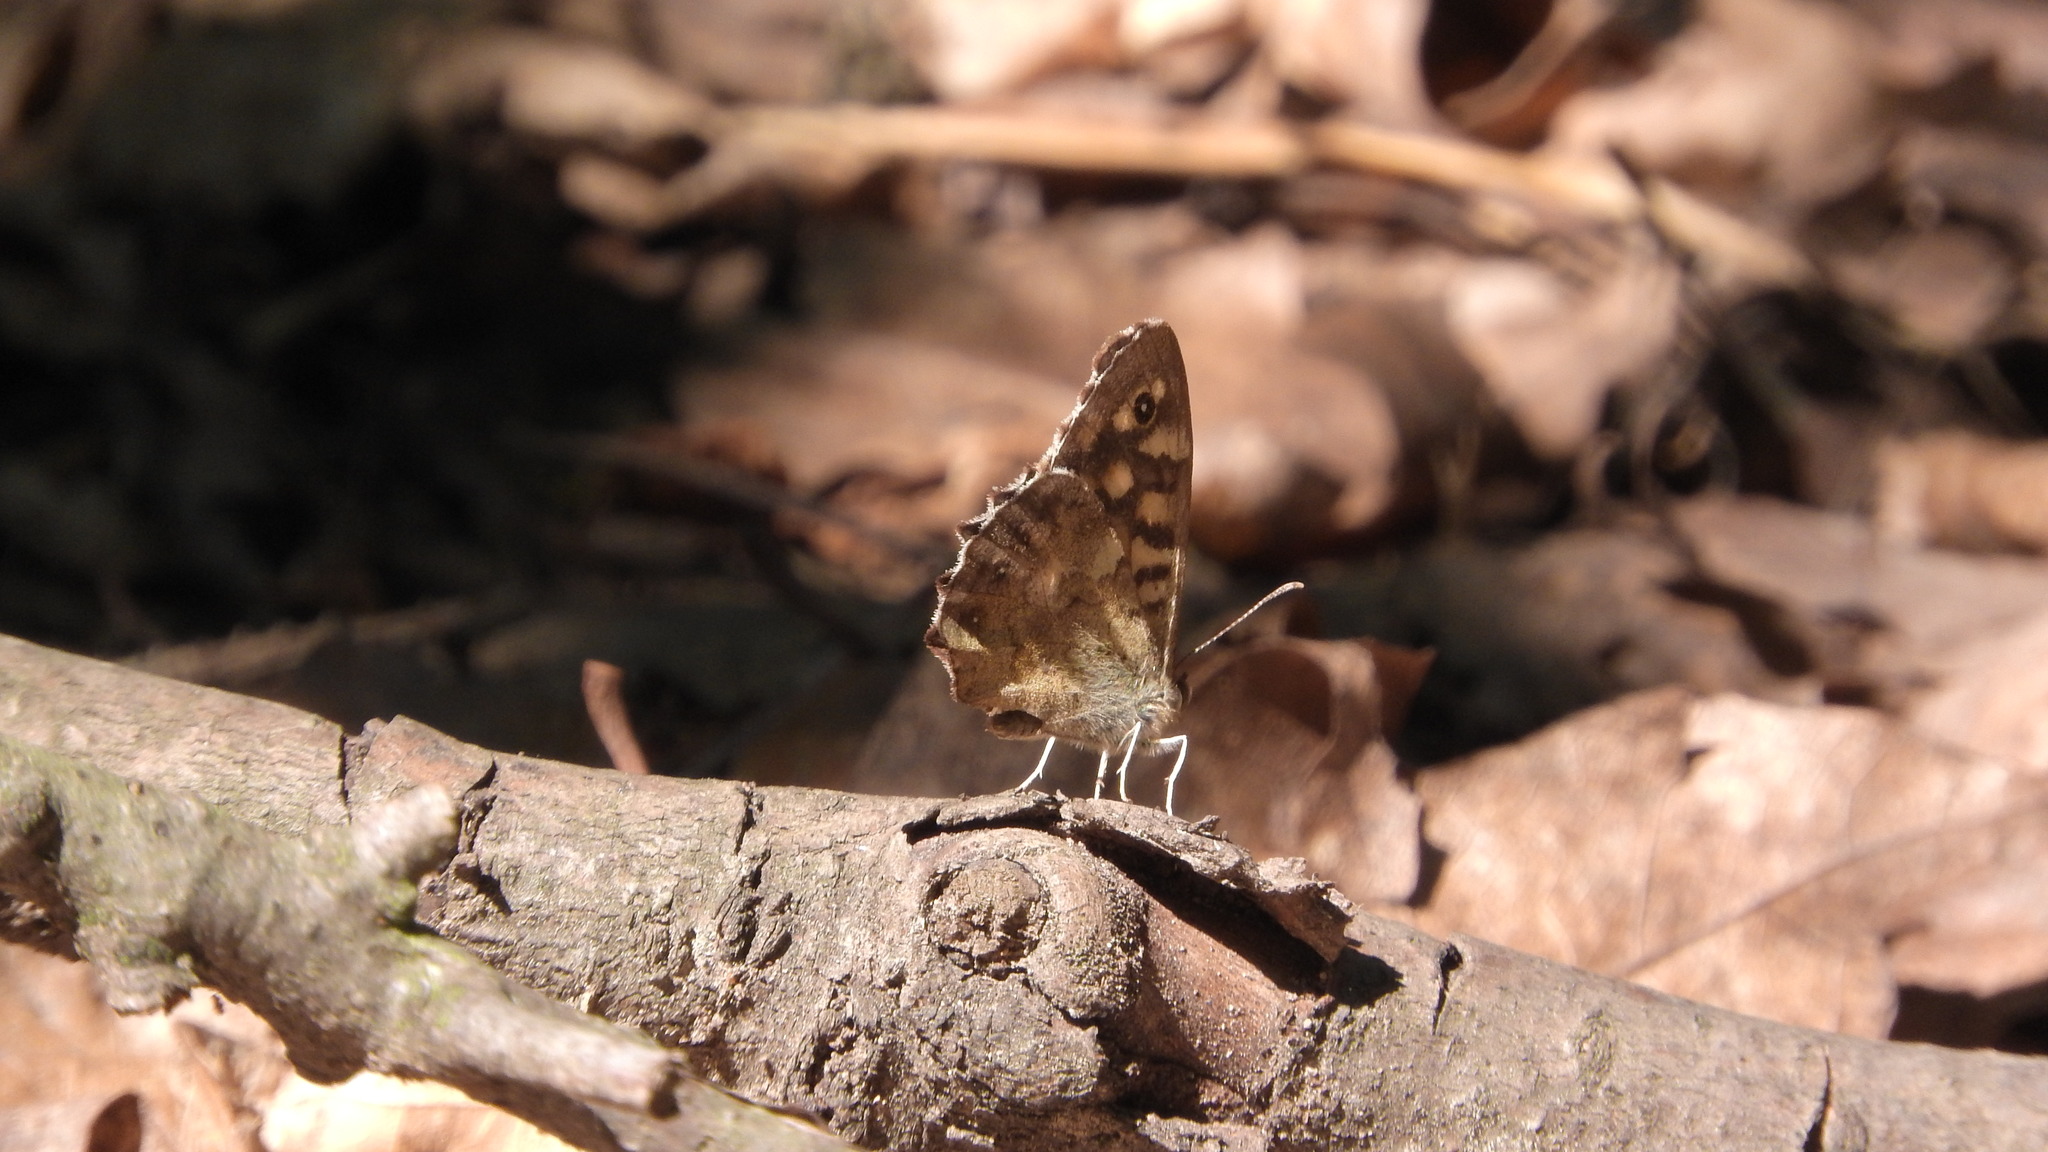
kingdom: Animalia
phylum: Arthropoda
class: Insecta
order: Lepidoptera
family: Nymphalidae
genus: Pararge
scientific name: Pararge aegeria
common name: Speckled wood
